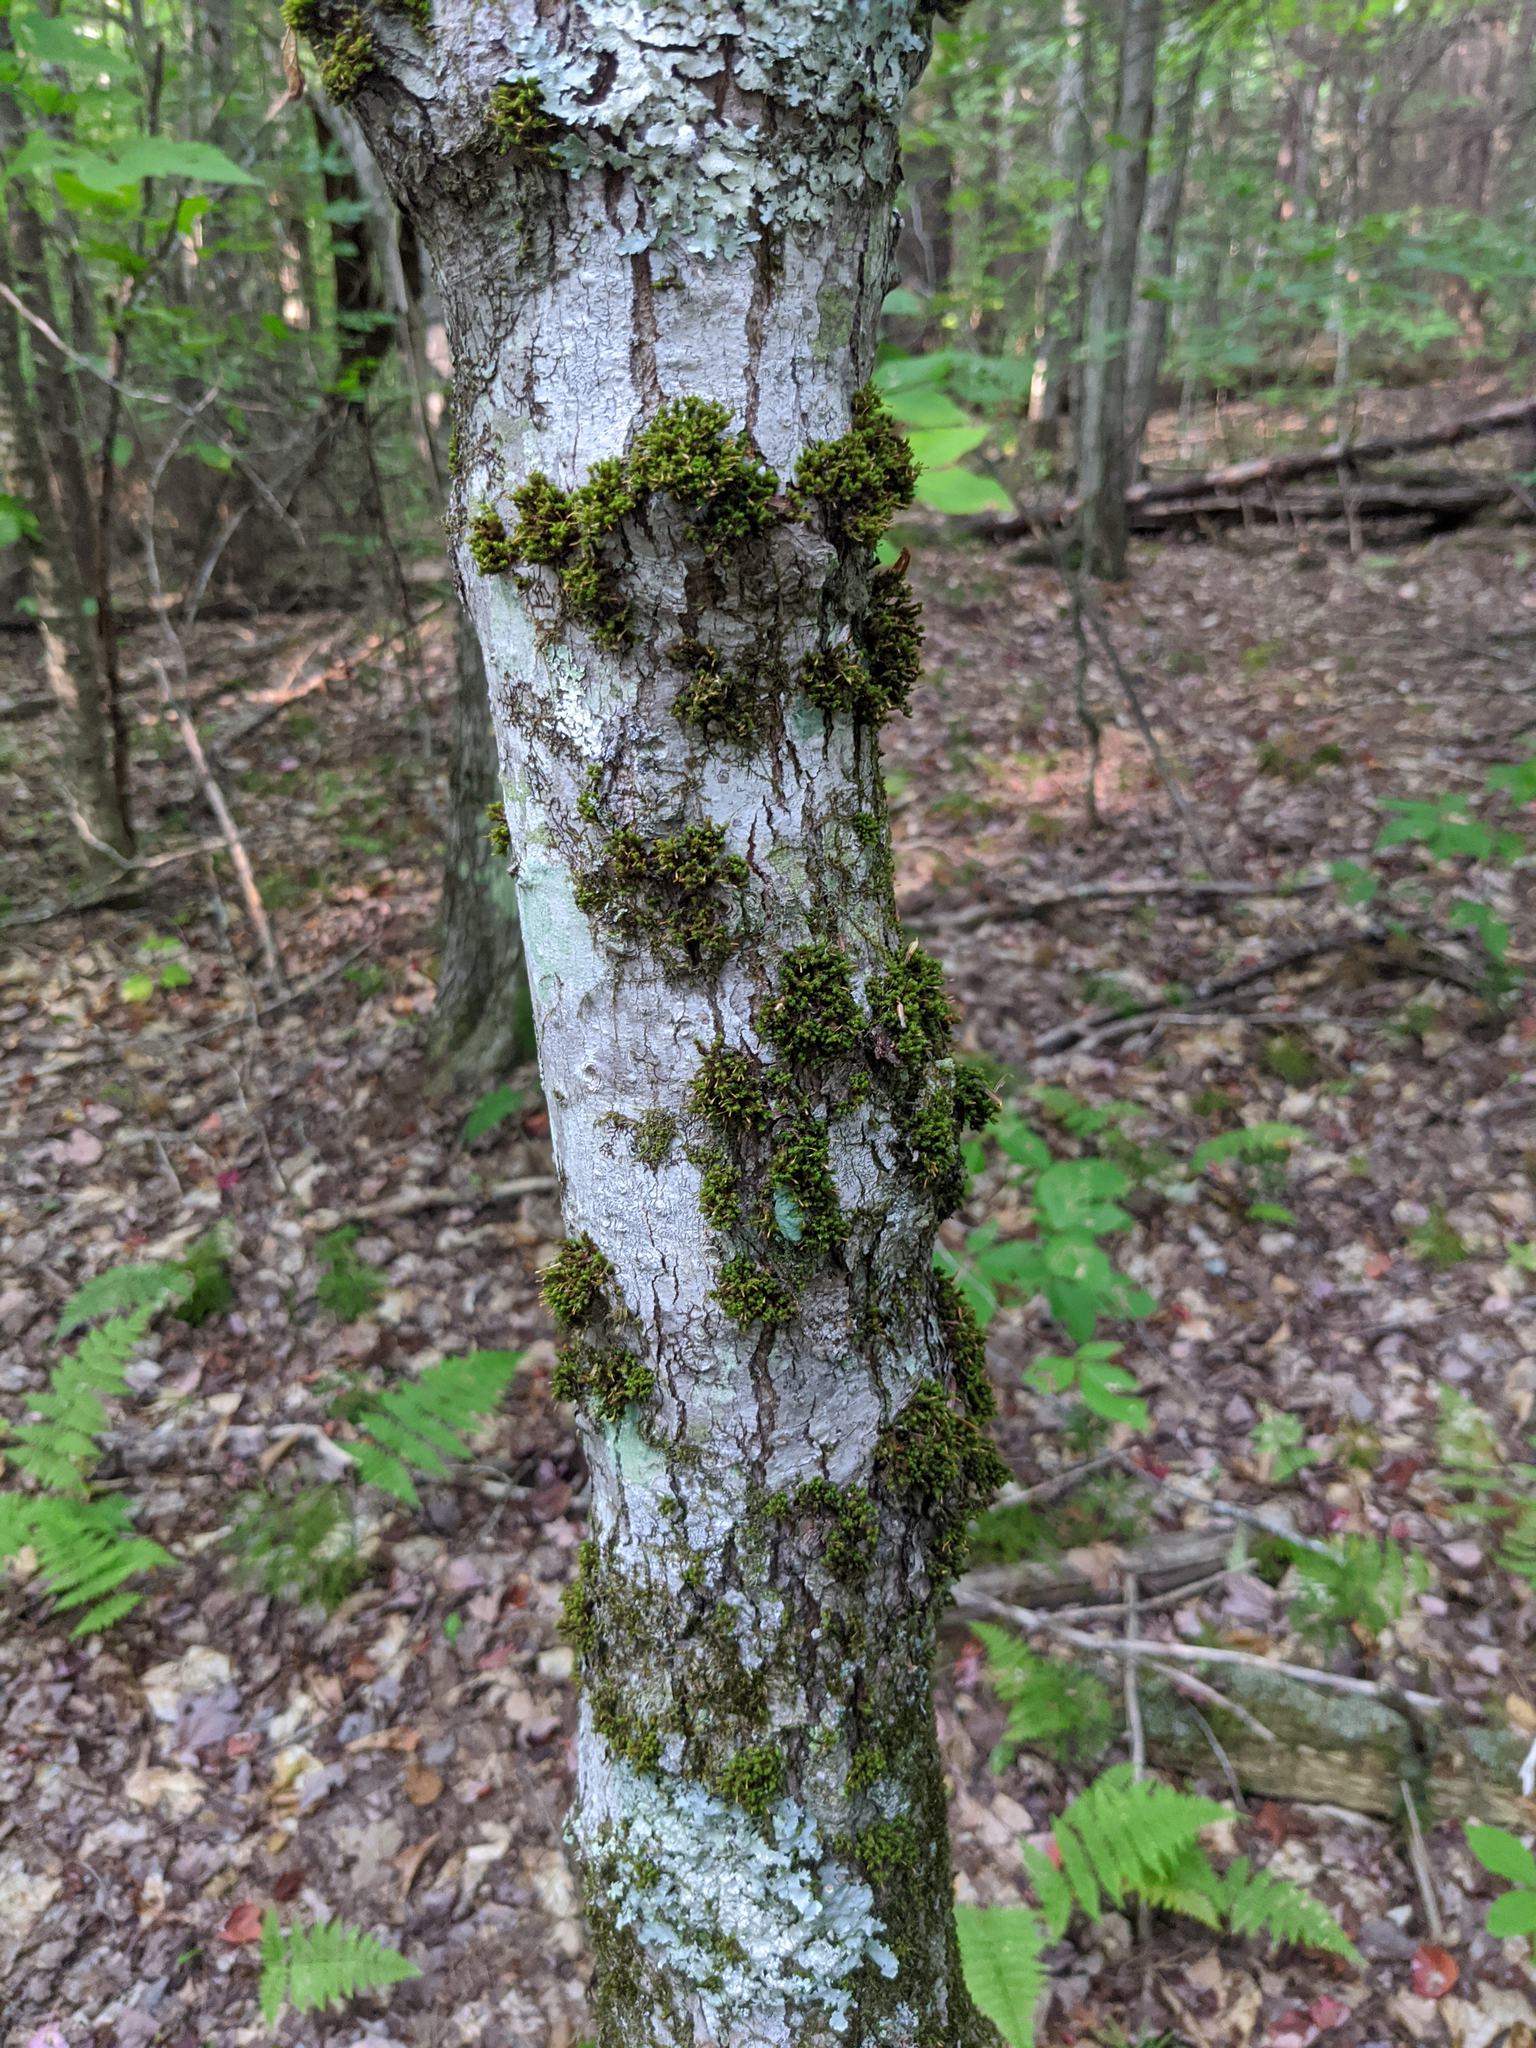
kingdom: Plantae
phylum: Bryophyta
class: Bryopsida
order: Orthotrichales
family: Orthotrichaceae
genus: Ulota
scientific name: Ulota crispa
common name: Crisped pincushion moss
